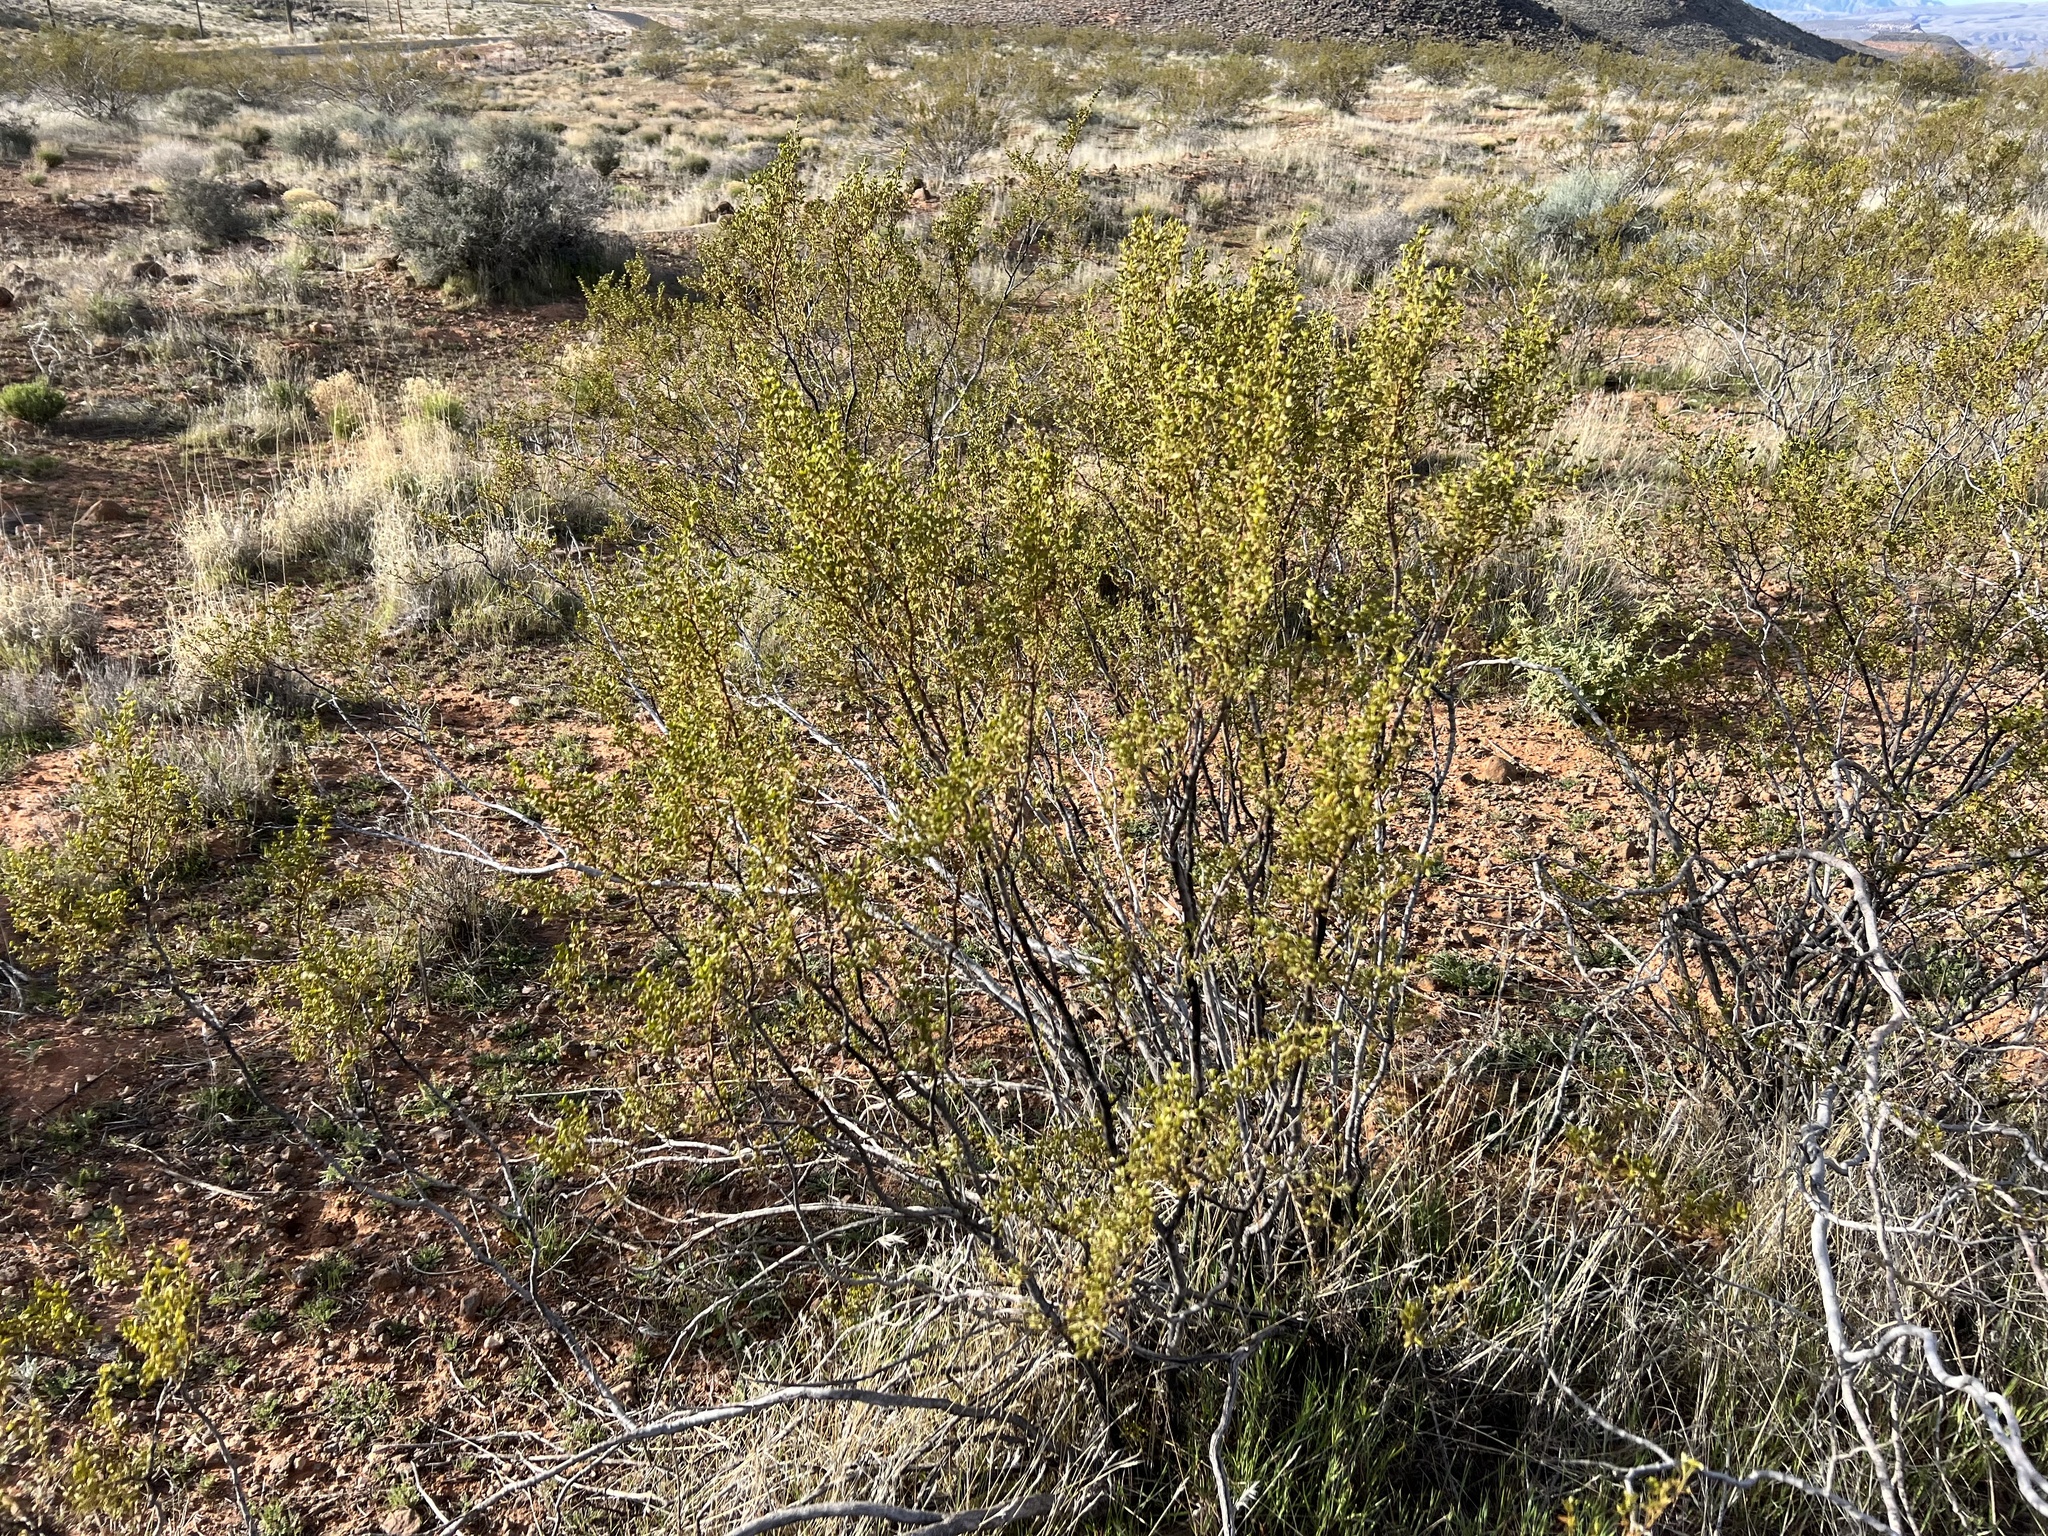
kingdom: Plantae
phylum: Tracheophyta
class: Magnoliopsida
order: Zygophyllales
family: Zygophyllaceae
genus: Larrea
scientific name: Larrea tridentata
